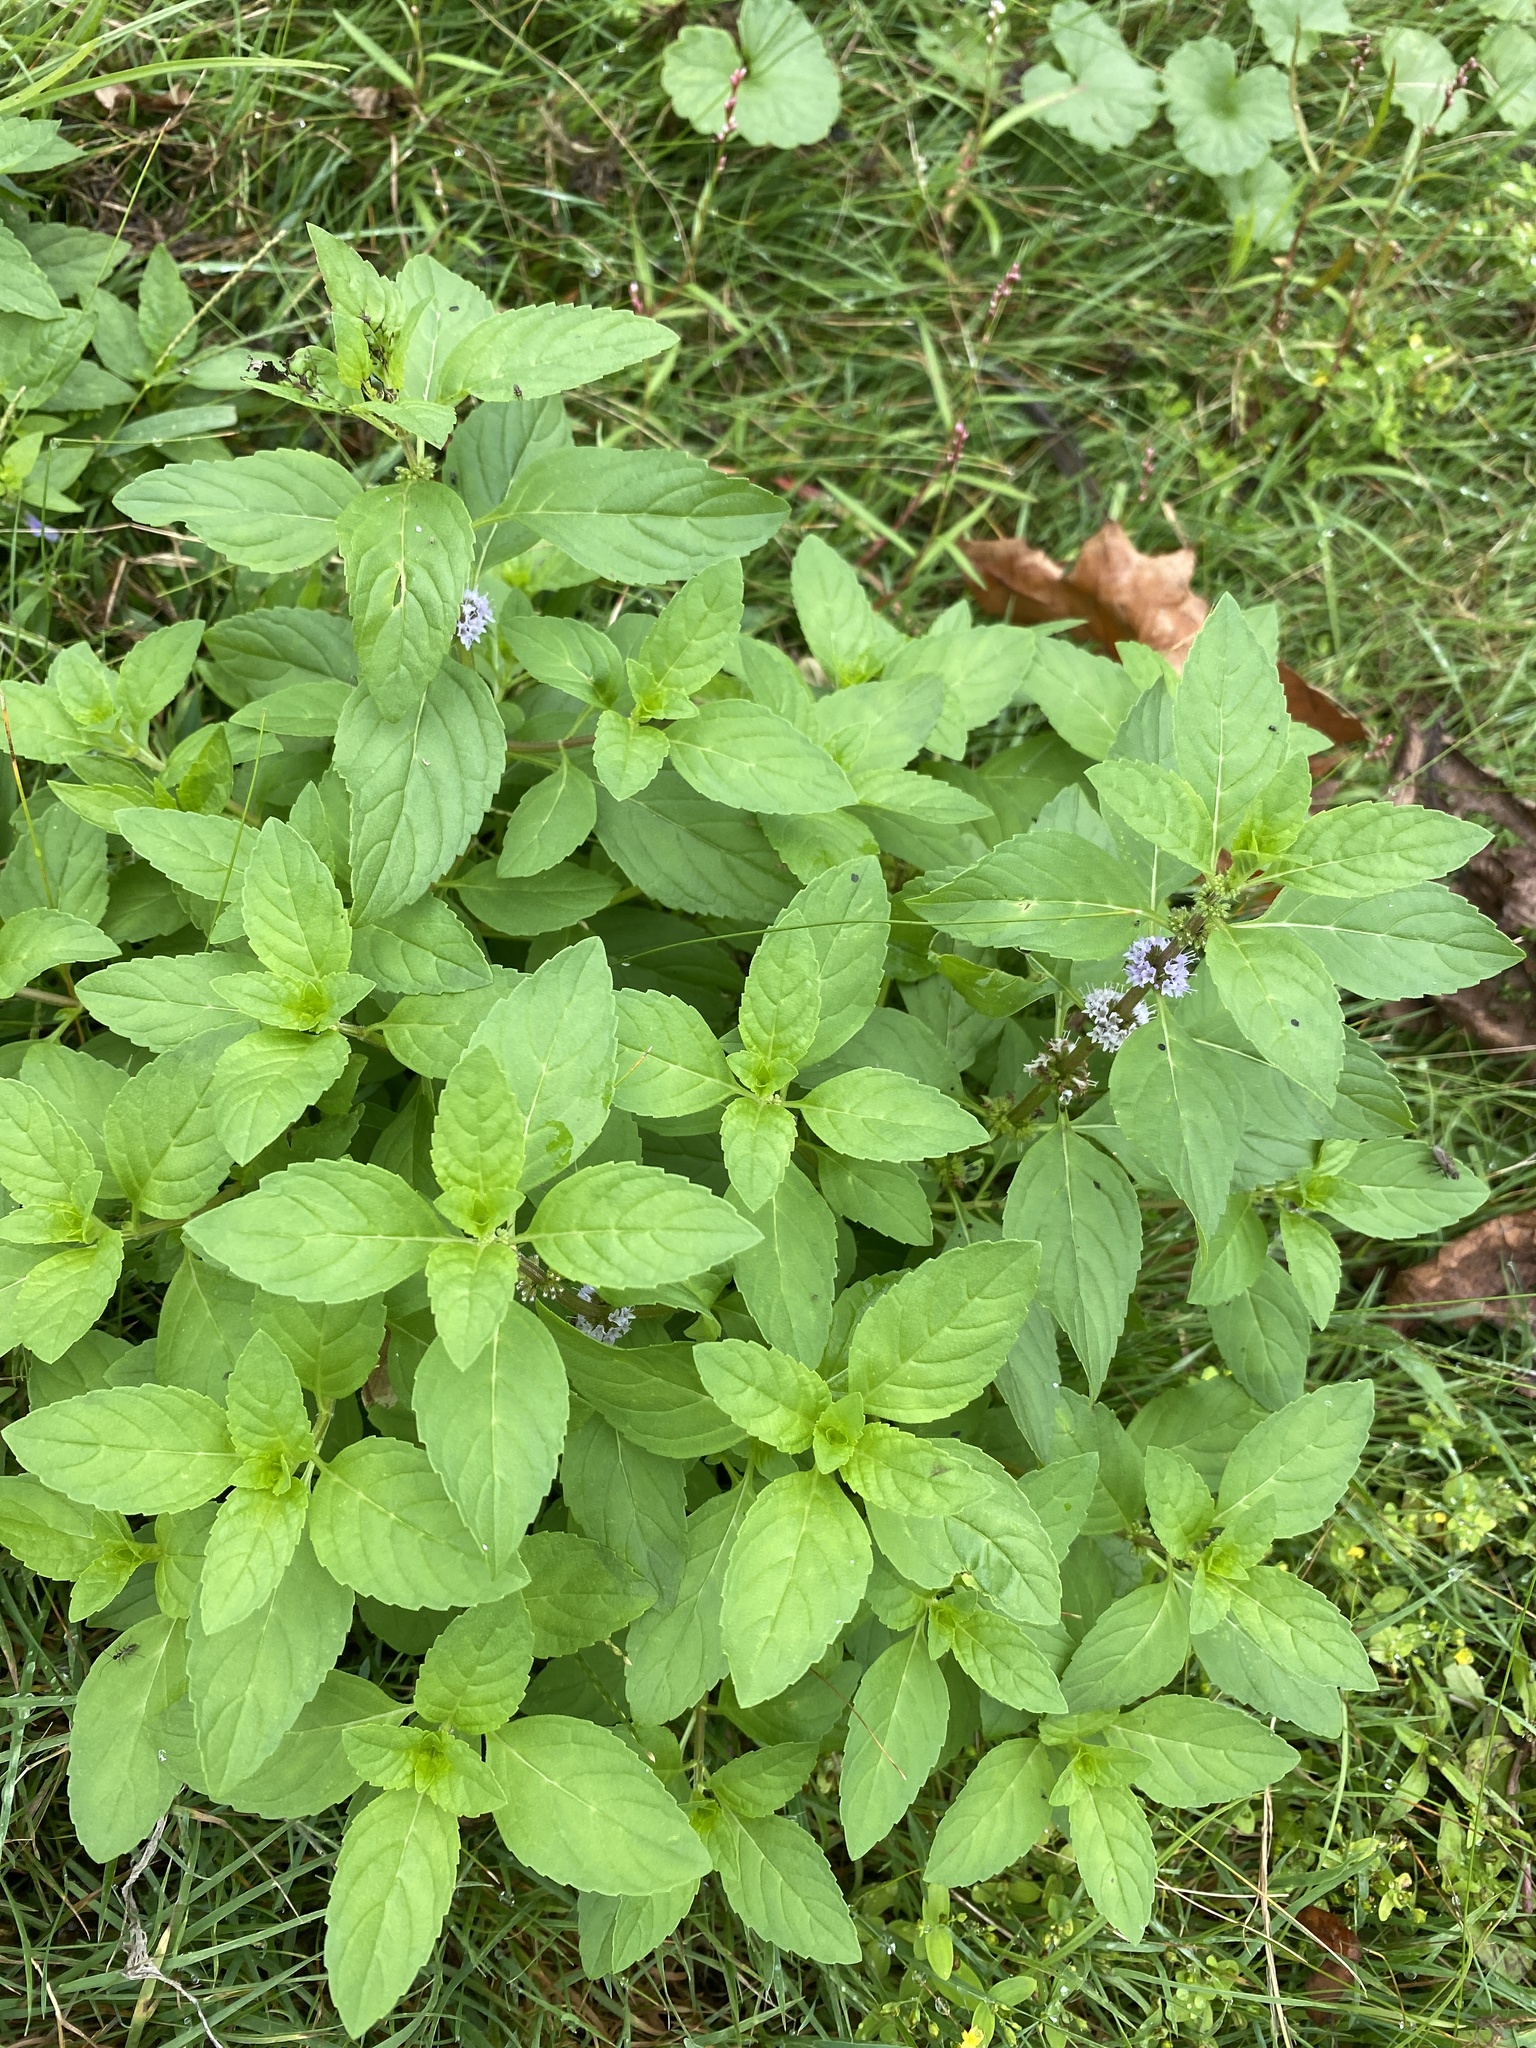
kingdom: Plantae
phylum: Tracheophyta
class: Magnoliopsida
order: Lamiales
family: Lamiaceae
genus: Mentha
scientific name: Mentha arvensis
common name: Corn mint
